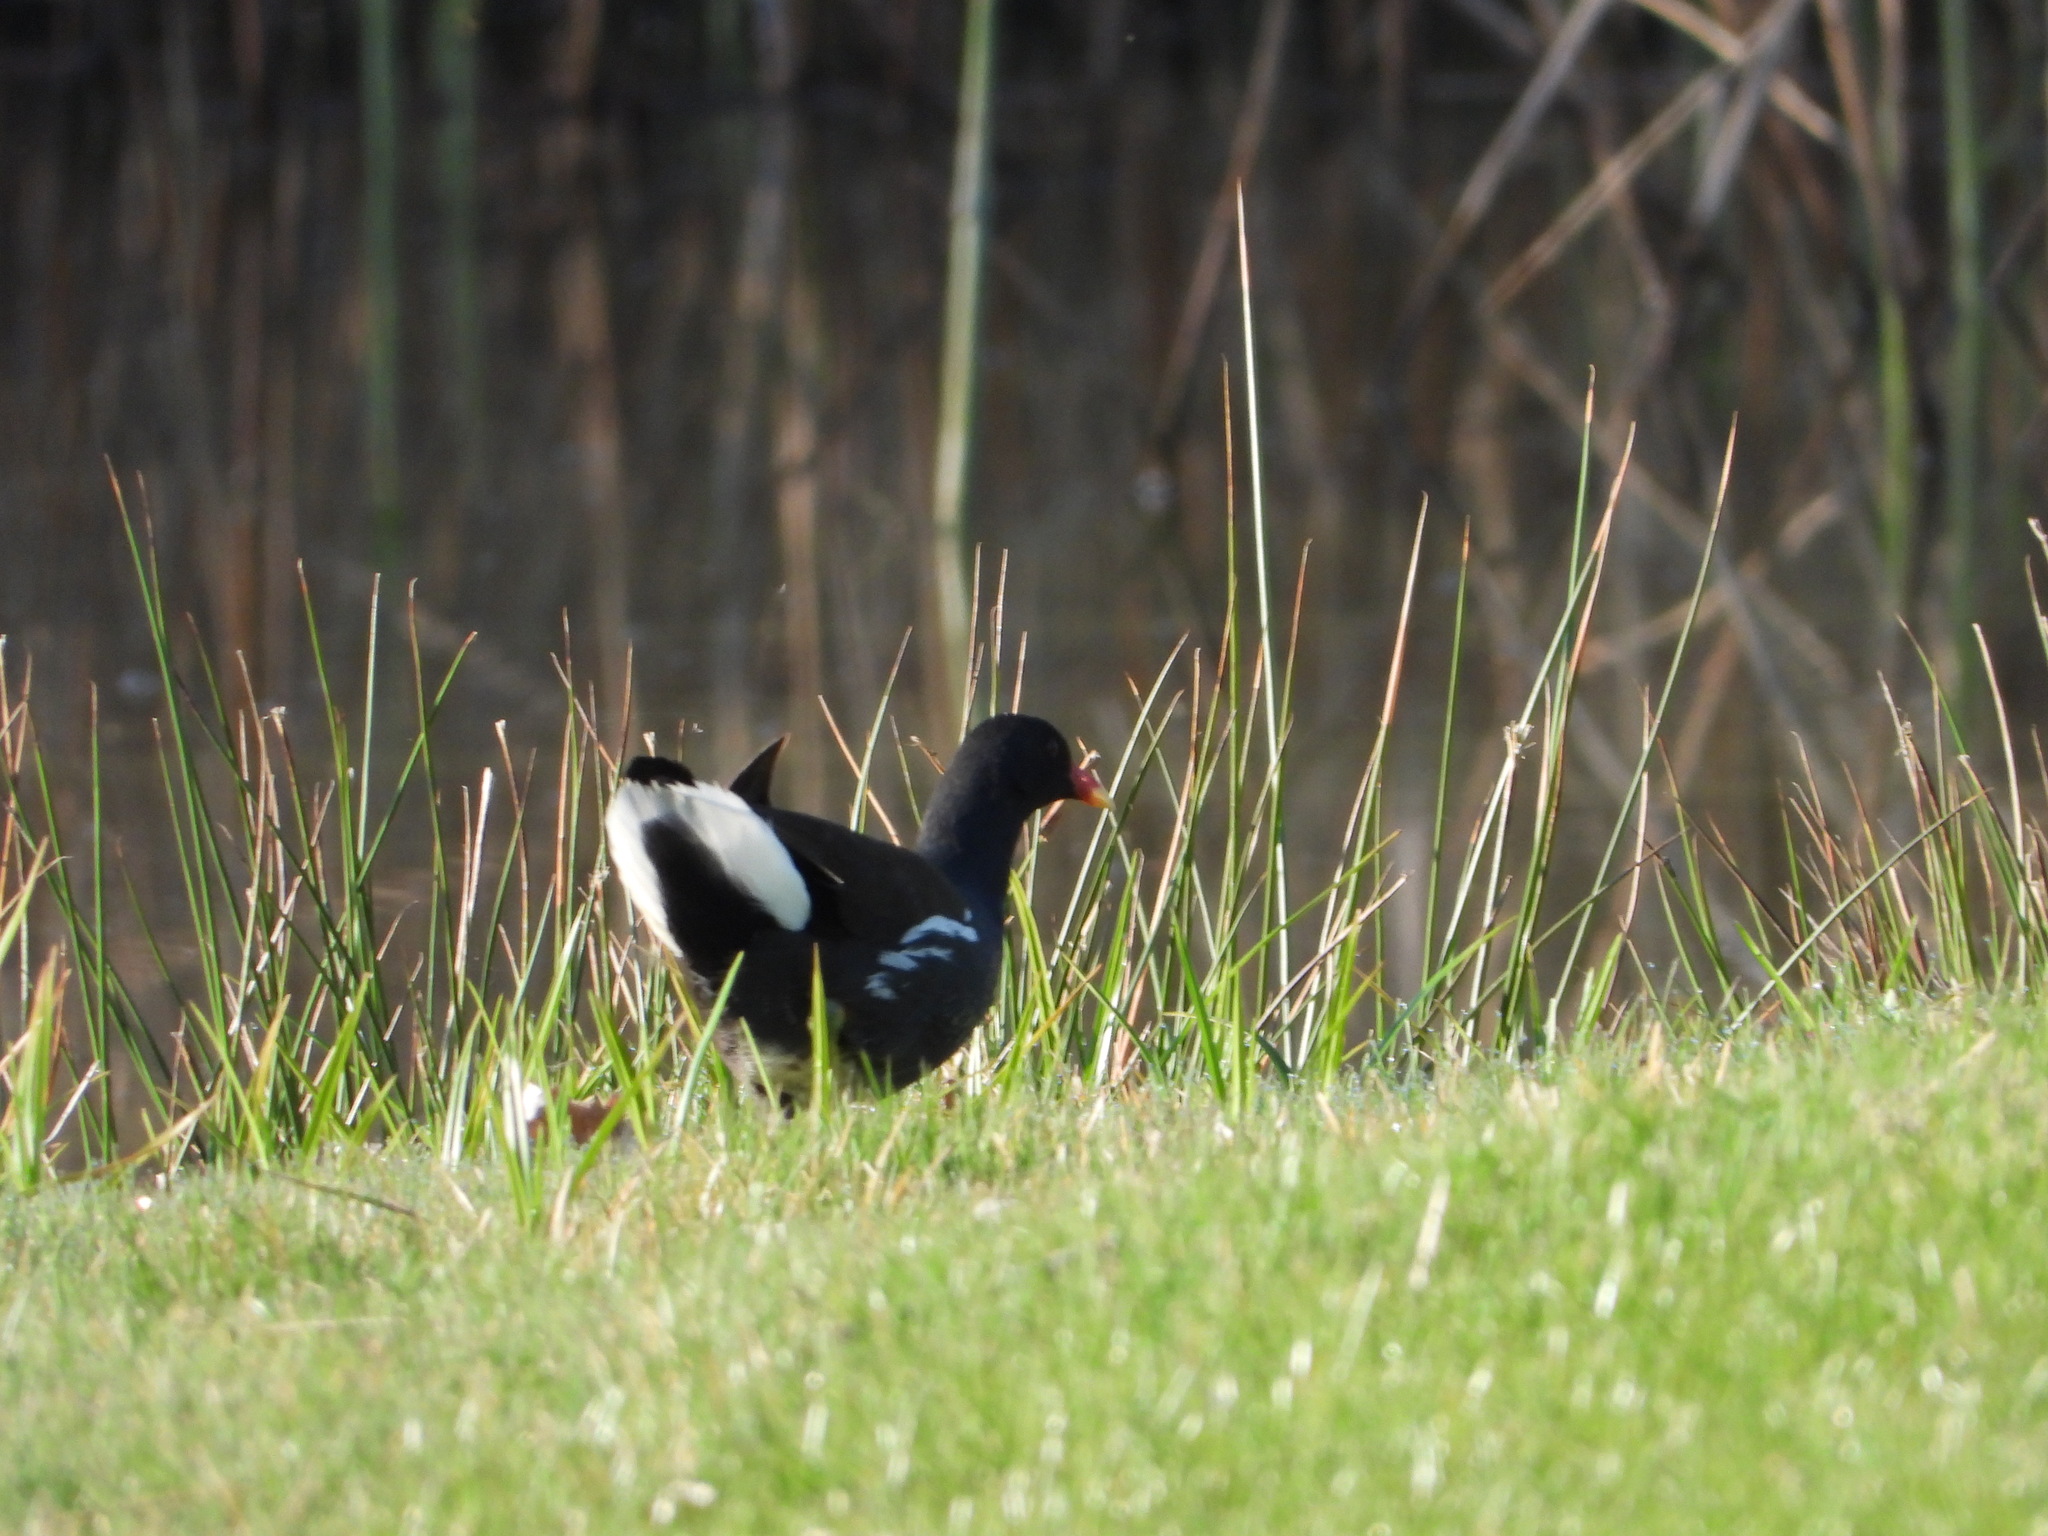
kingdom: Animalia
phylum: Chordata
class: Aves
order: Gruiformes
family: Rallidae
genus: Gallinula
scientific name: Gallinula chloropus
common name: Common moorhen
